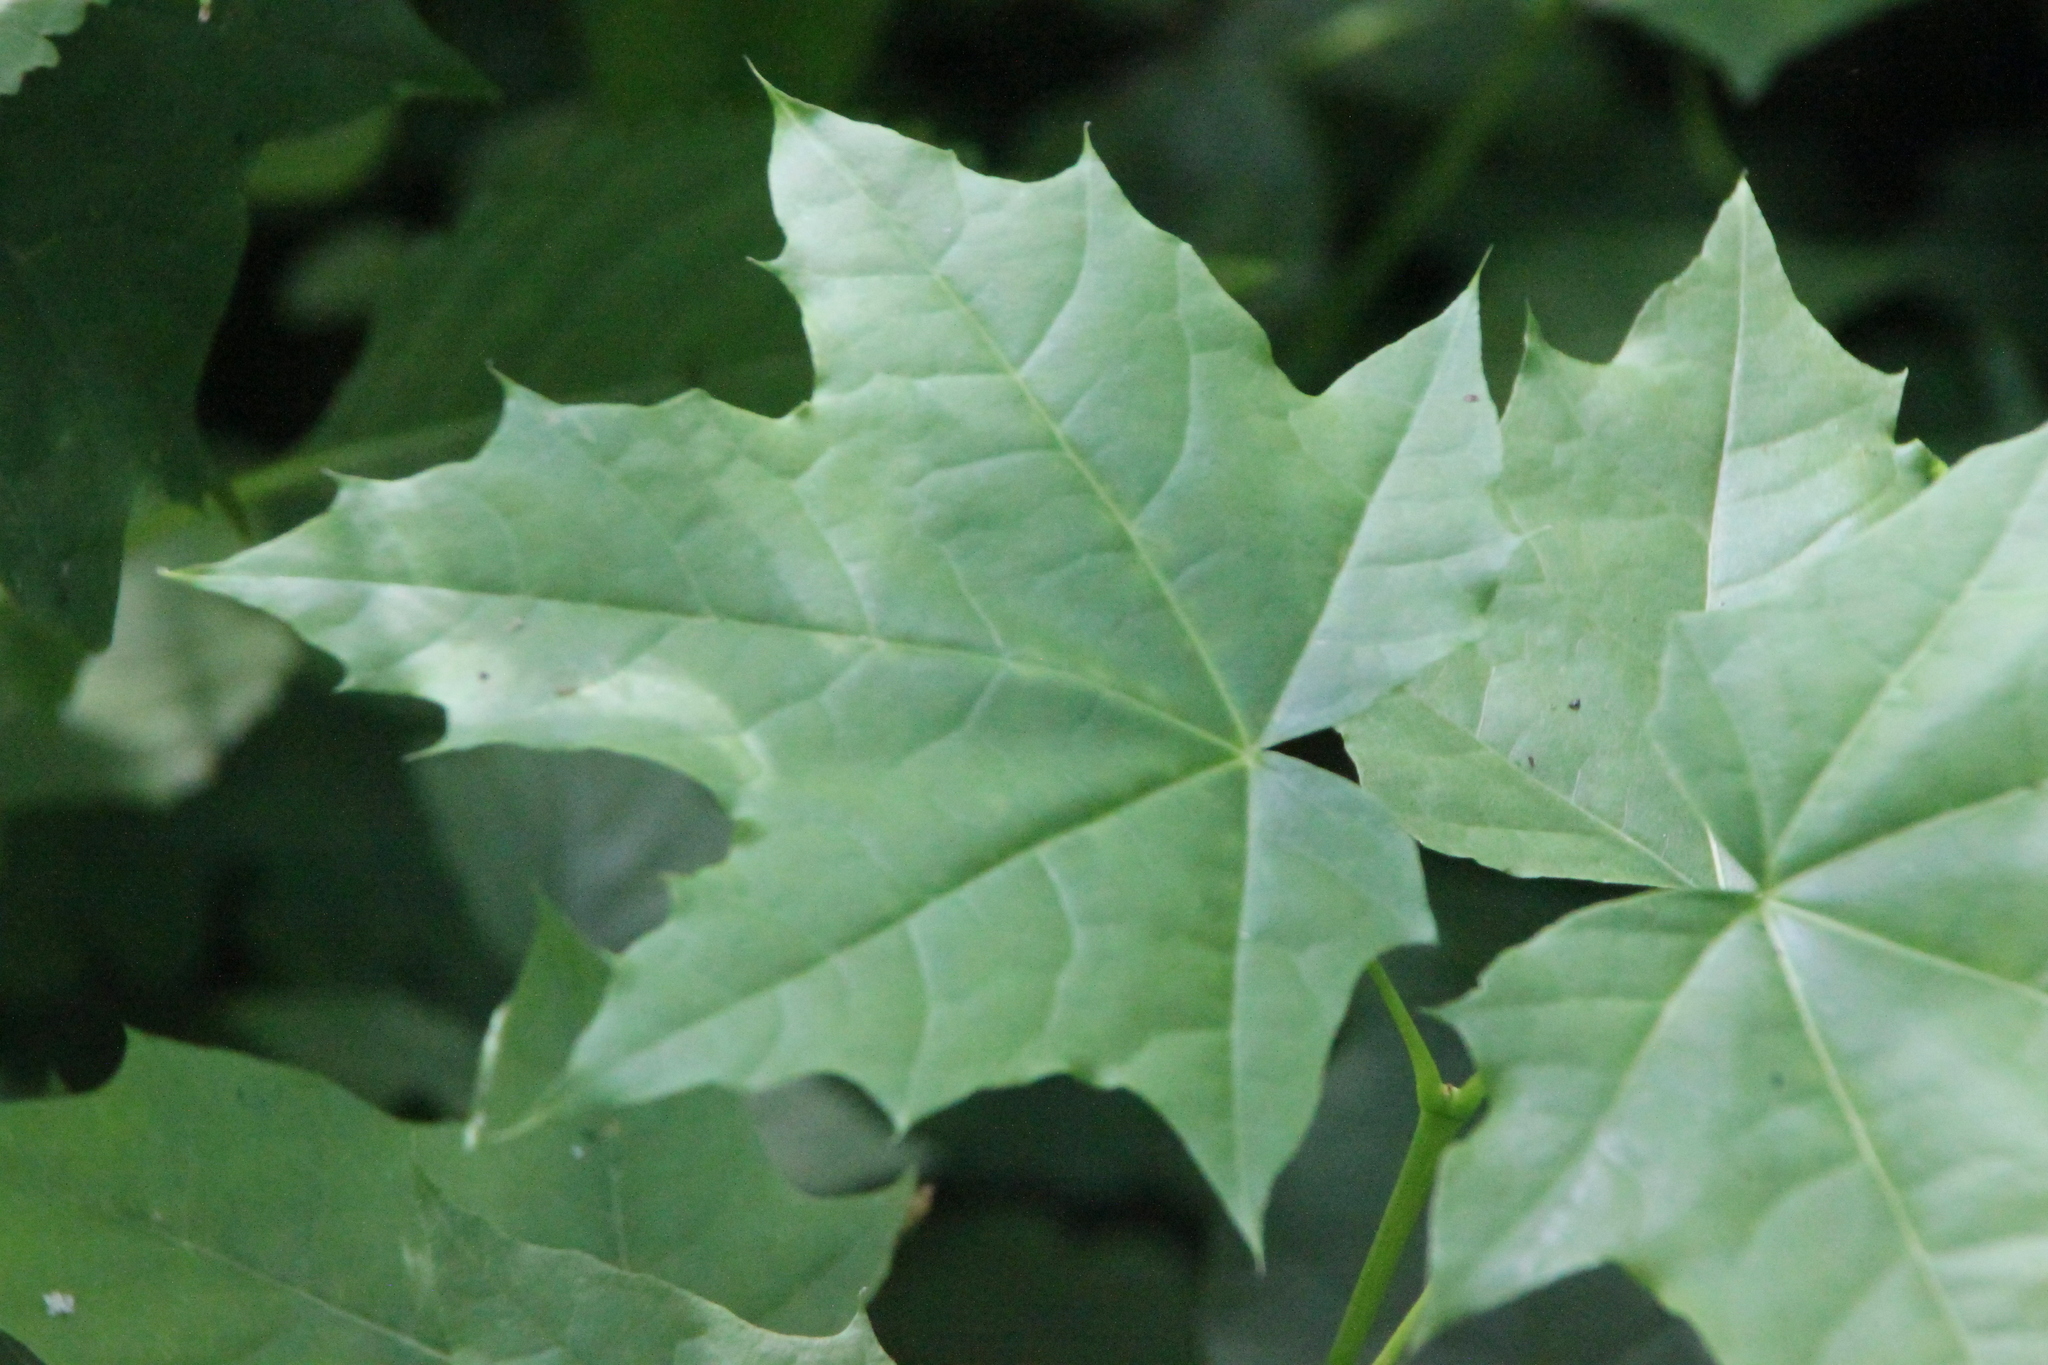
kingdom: Plantae
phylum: Tracheophyta
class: Magnoliopsida
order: Sapindales
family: Sapindaceae
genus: Acer
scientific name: Acer platanoides
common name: Norway maple
